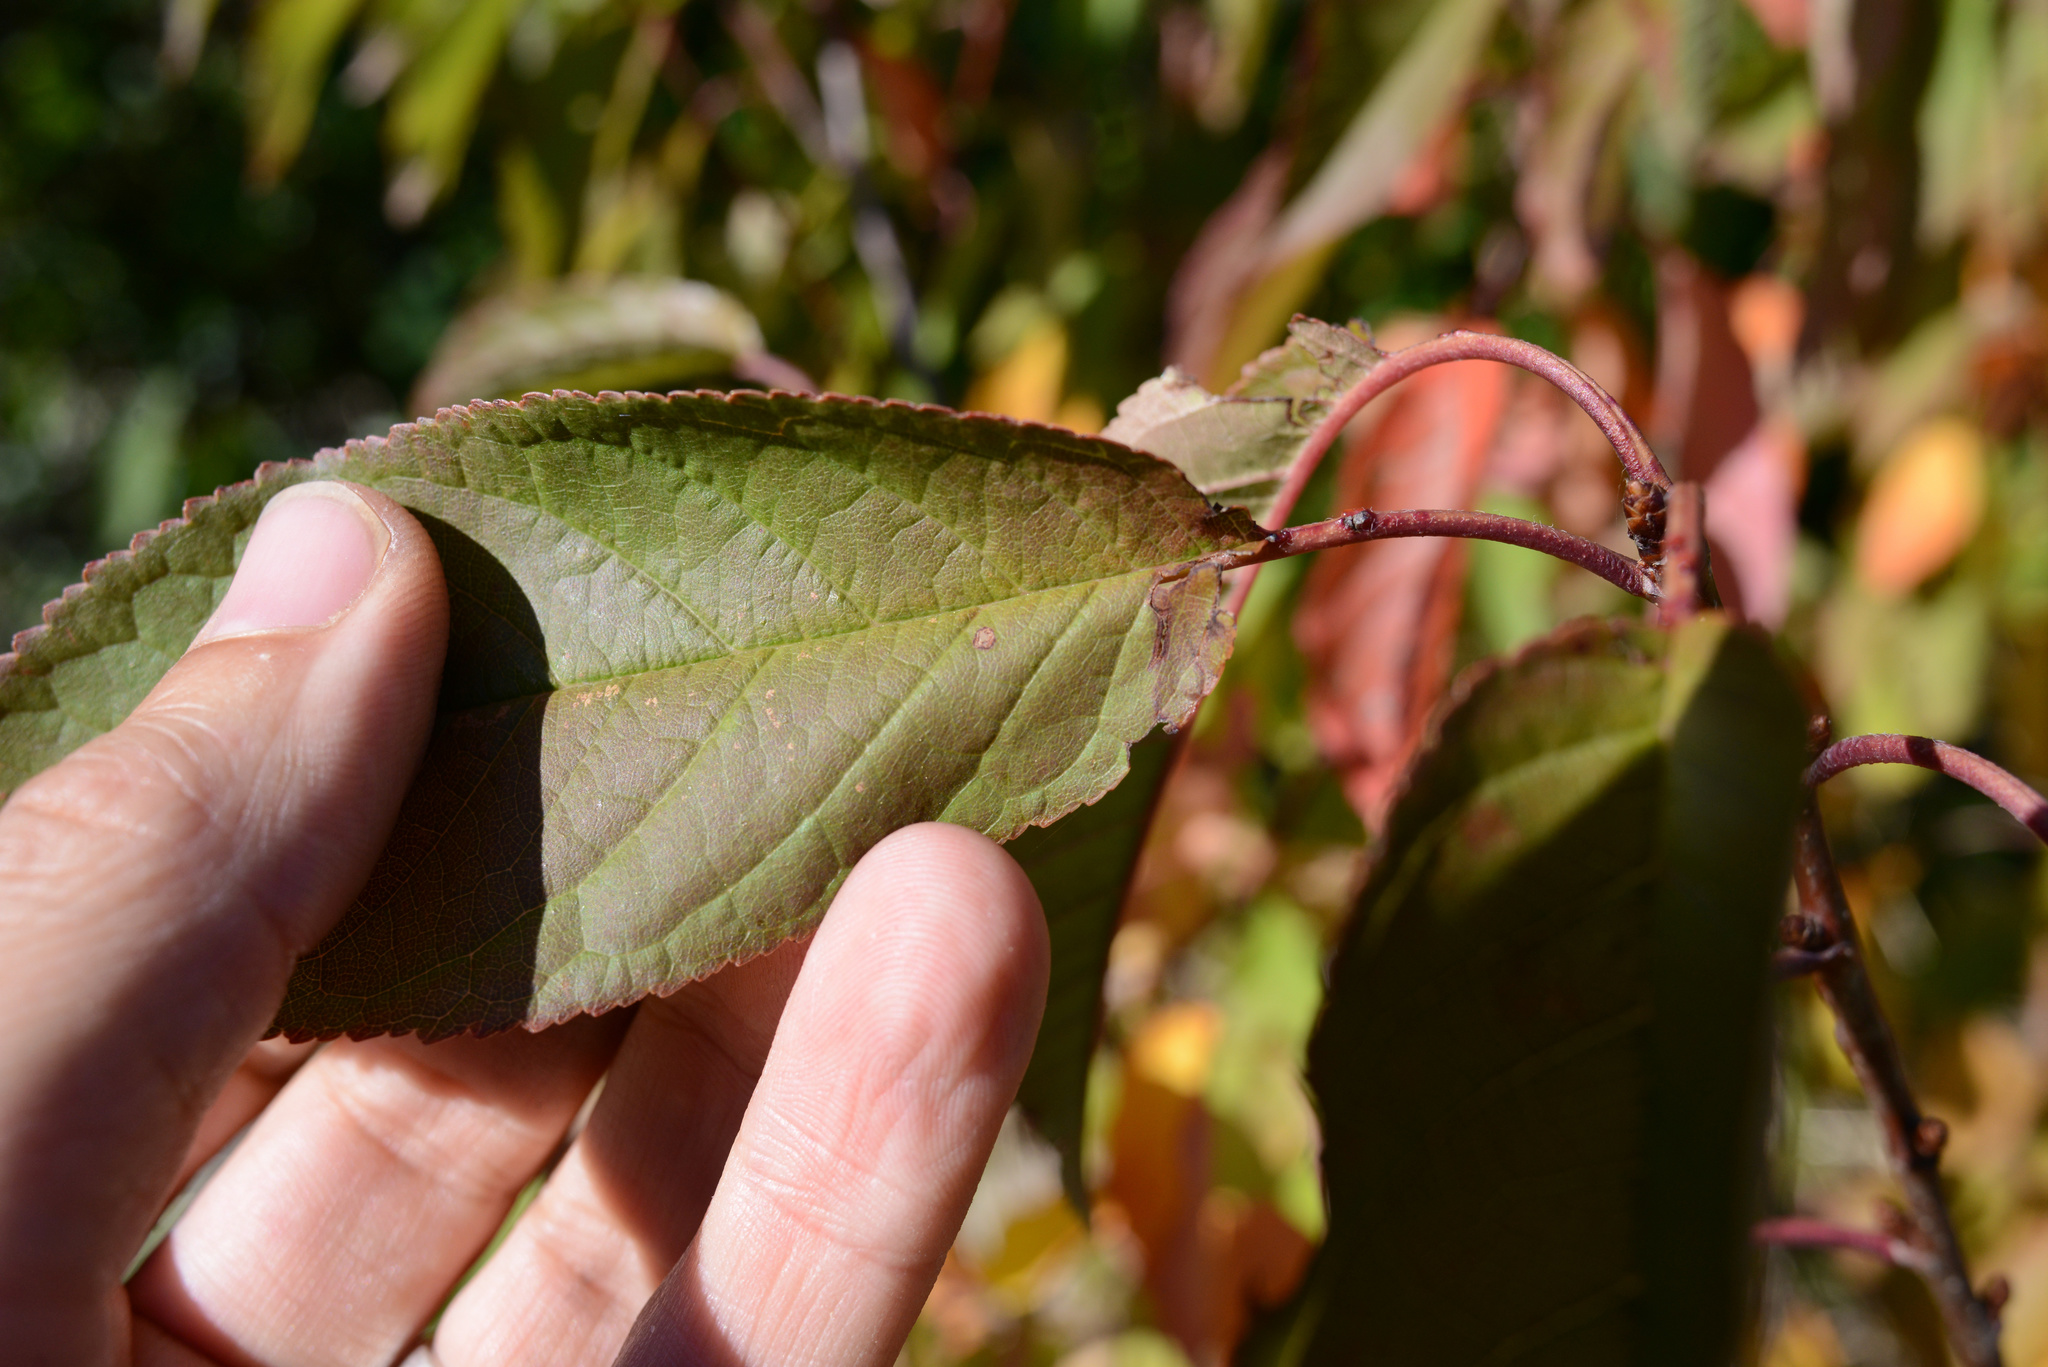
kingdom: Plantae
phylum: Tracheophyta
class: Magnoliopsida
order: Rosales
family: Rosaceae
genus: Prunus
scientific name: Prunus avium
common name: Sweet cherry
